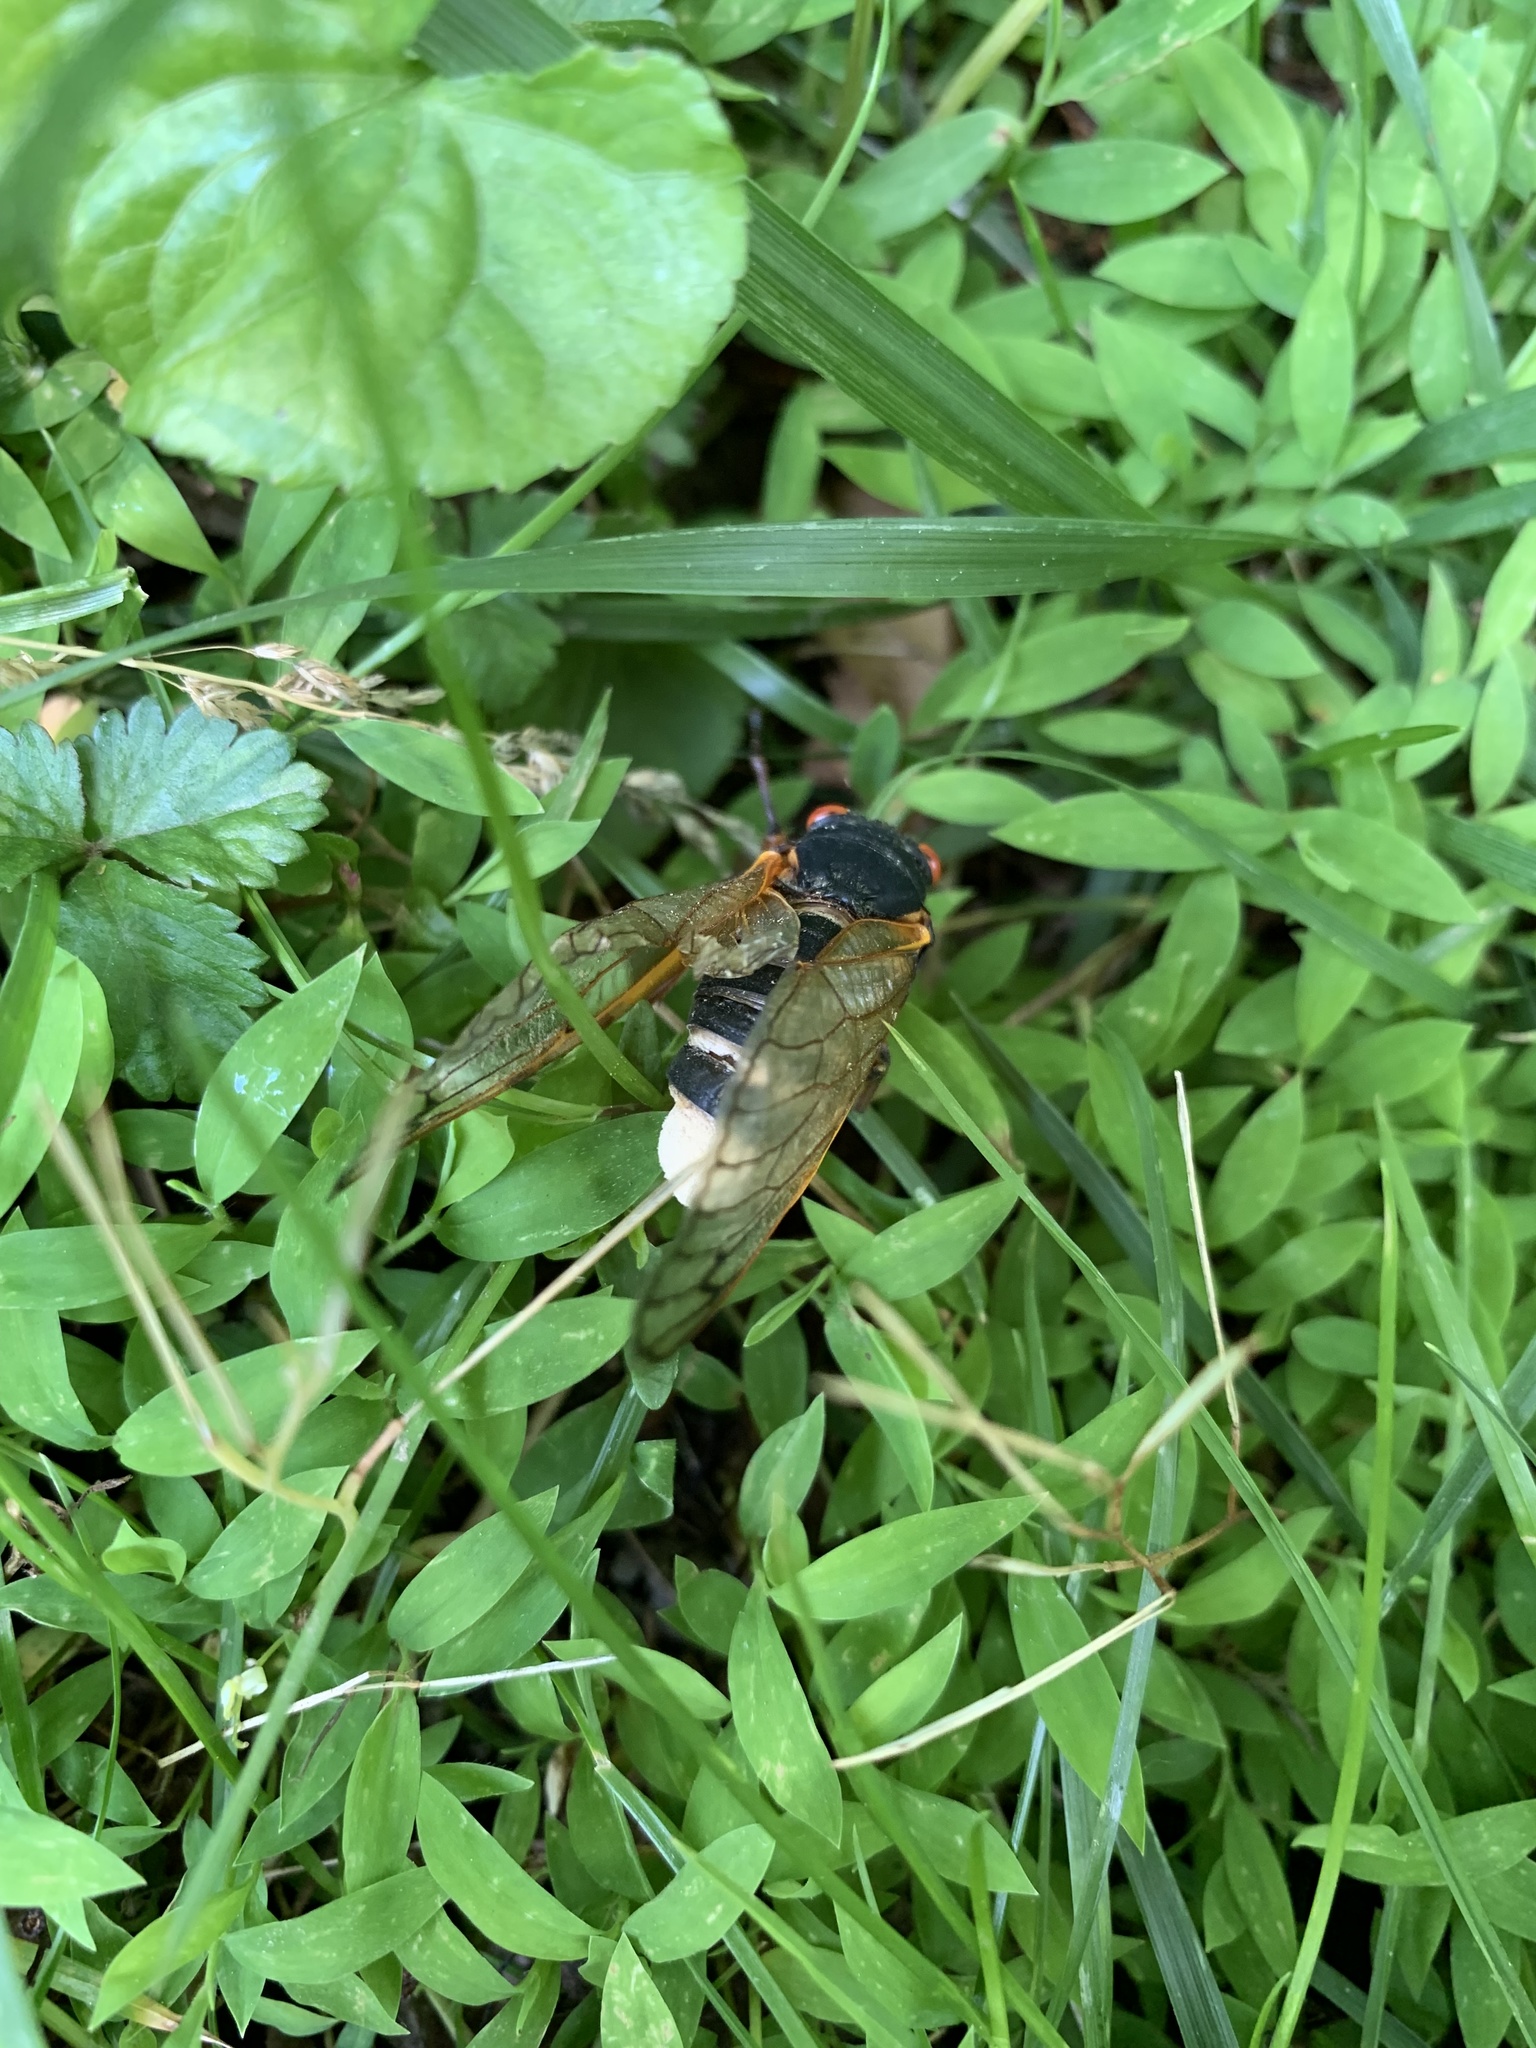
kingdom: Fungi
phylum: Entomophthoromycota
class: Entomophthoromycetes
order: Entomophthorales
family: Entomophthoraceae
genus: Massospora
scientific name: Massospora cicadina
